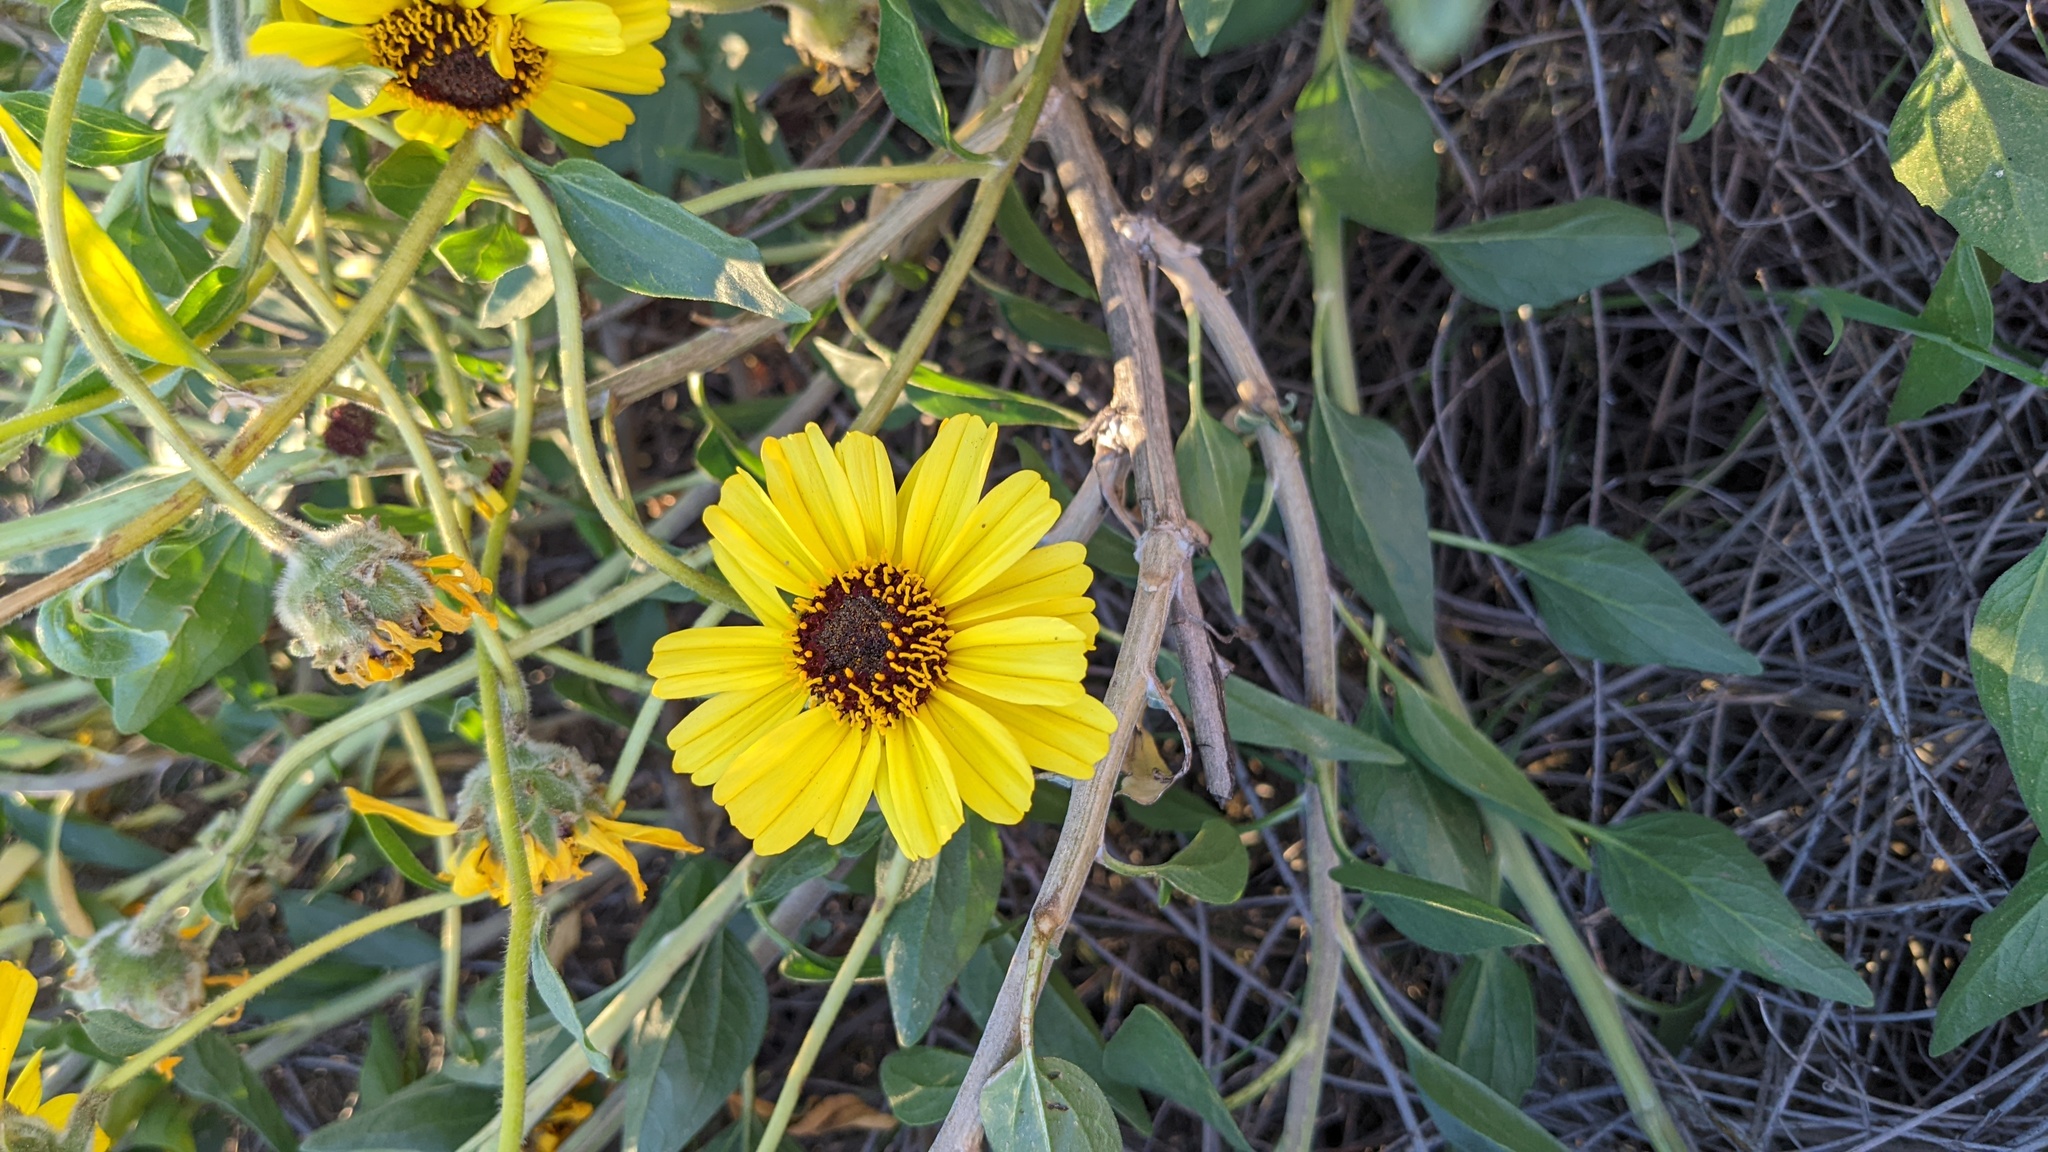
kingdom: Plantae
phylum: Tracheophyta
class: Magnoliopsida
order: Asterales
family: Asteraceae
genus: Encelia
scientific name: Encelia californica
